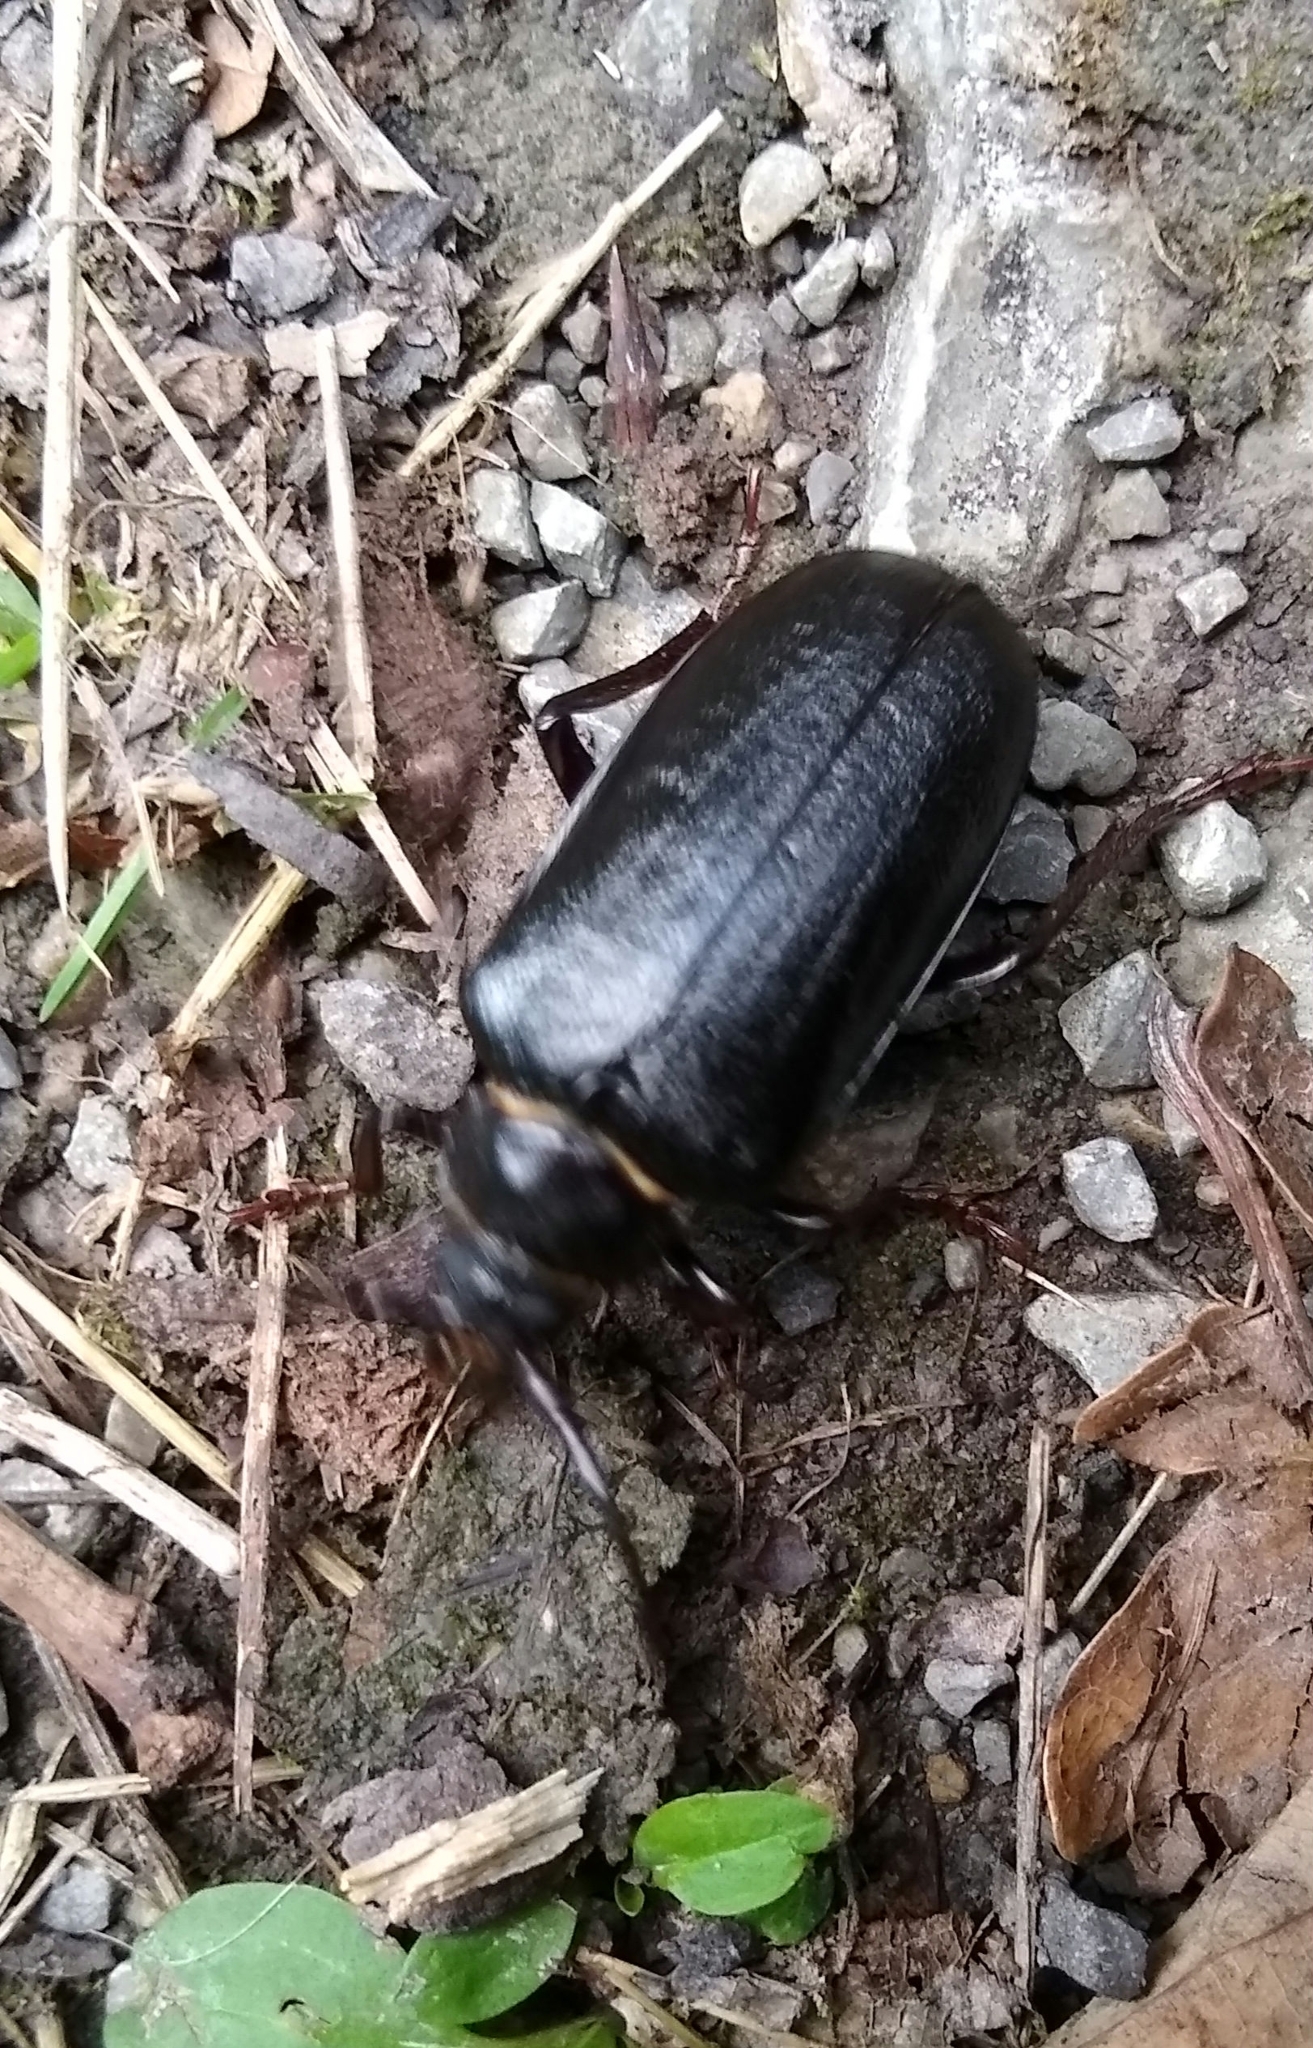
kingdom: Animalia
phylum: Arthropoda
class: Insecta
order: Coleoptera
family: Cerambycidae
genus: Prionus
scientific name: Prionus coriarius
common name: Tanner beetle
